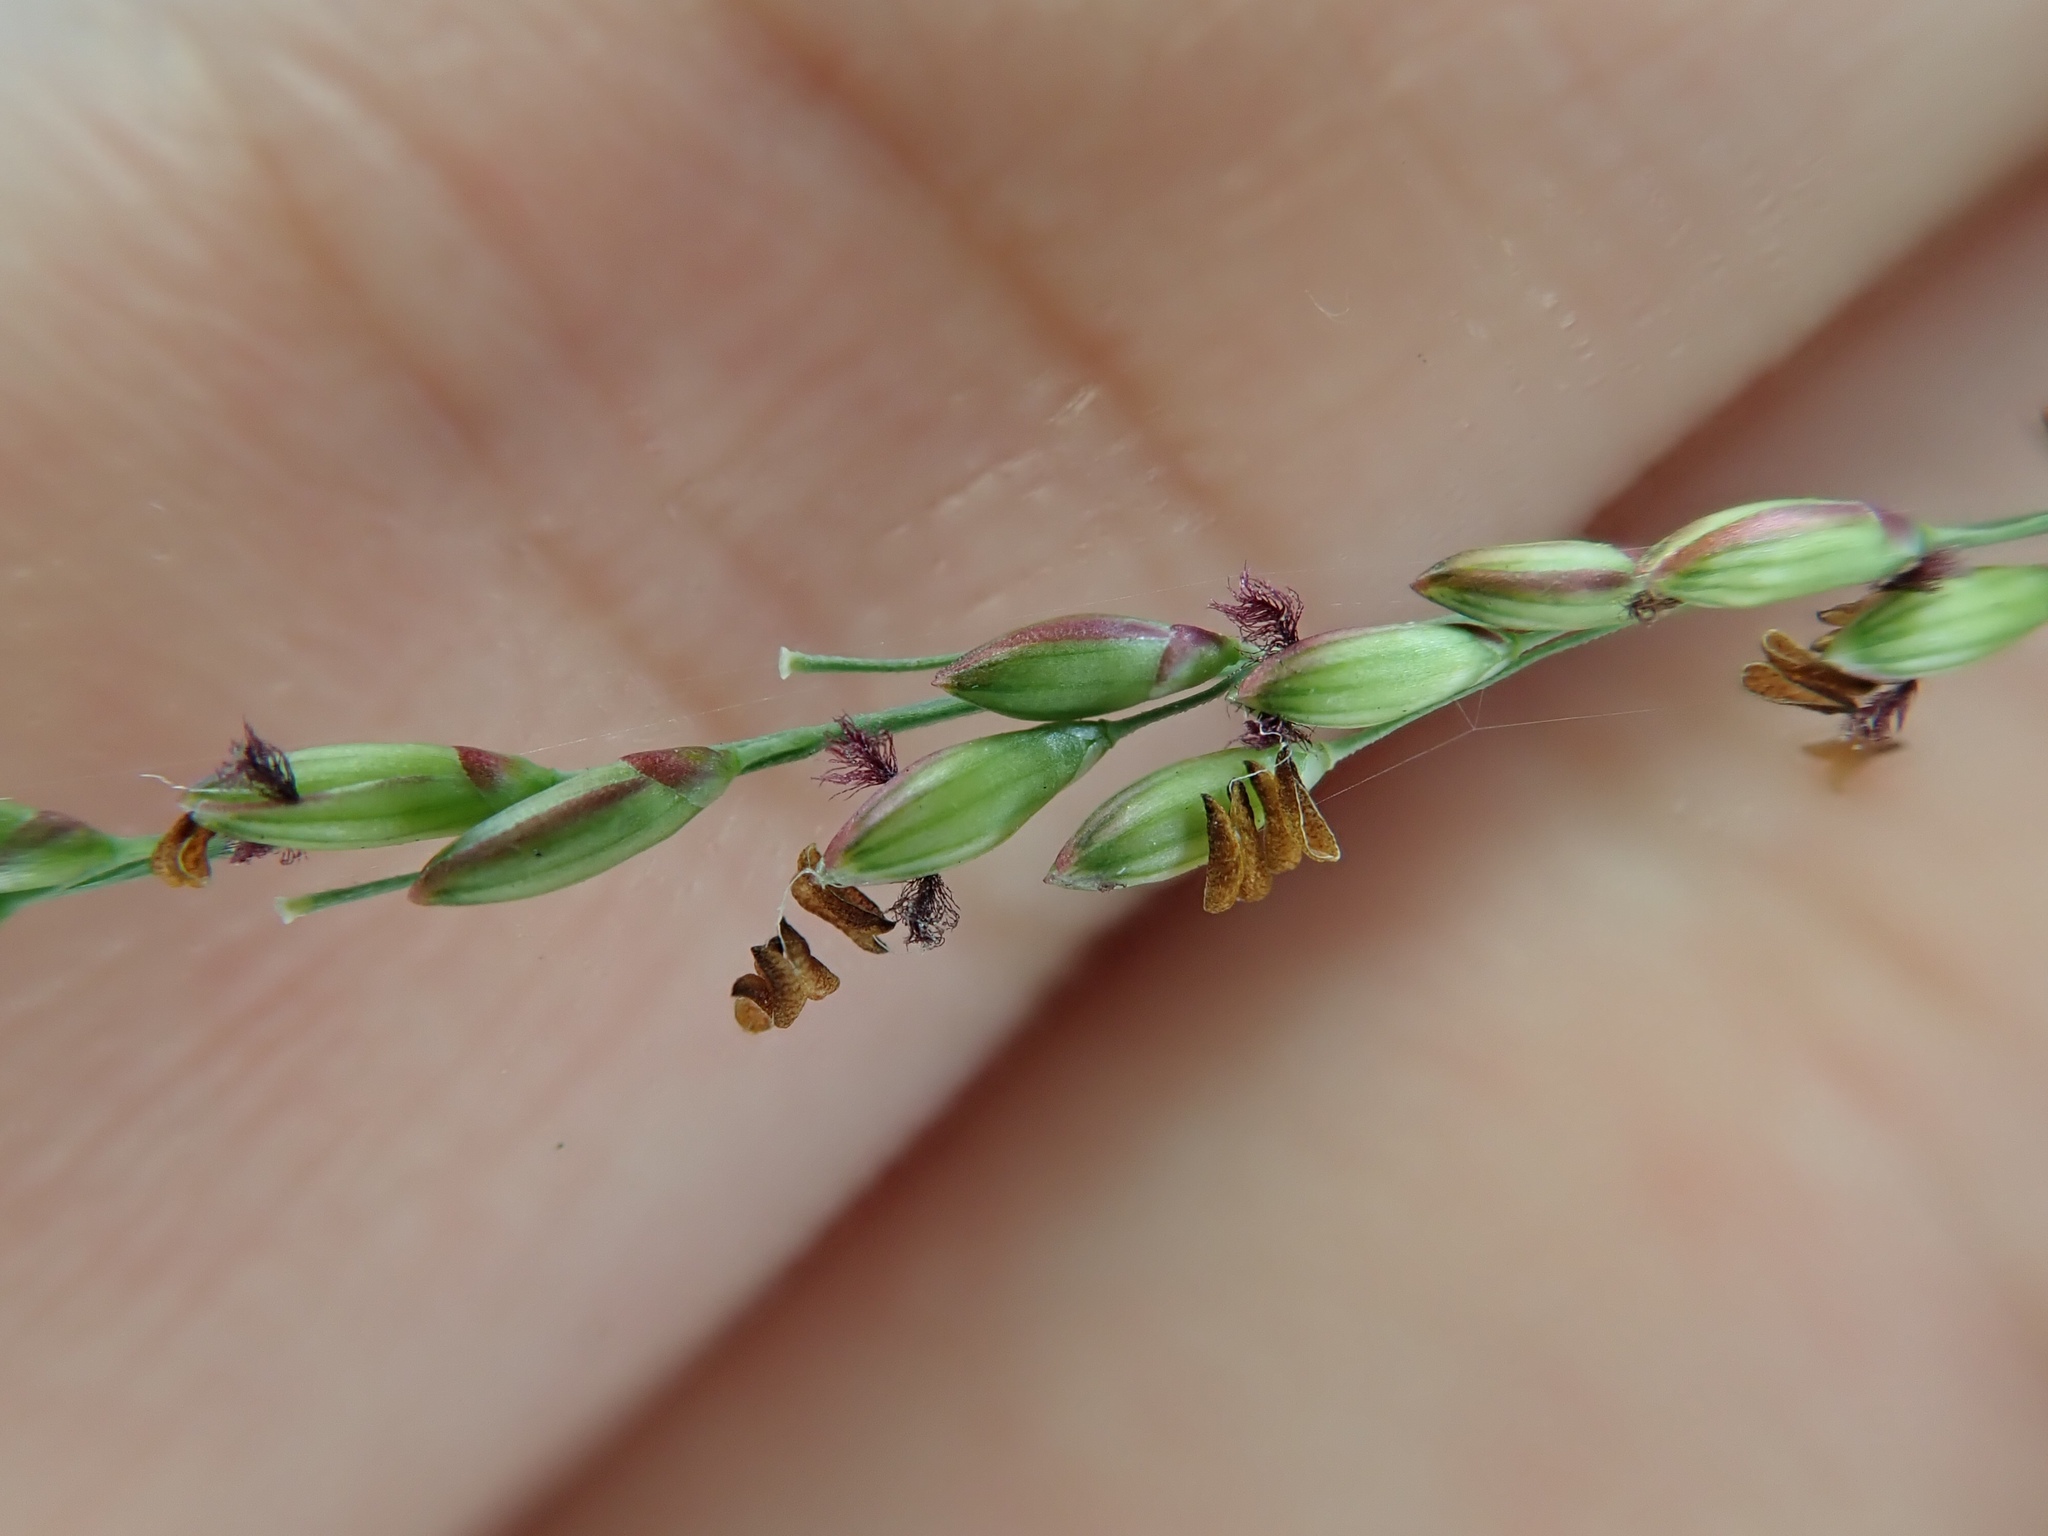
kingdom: Plantae
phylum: Tracheophyta
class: Liliopsida
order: Poales
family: Poaceae
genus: Megathyrsus
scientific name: Megathyrsus maximus
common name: Guineagrass
